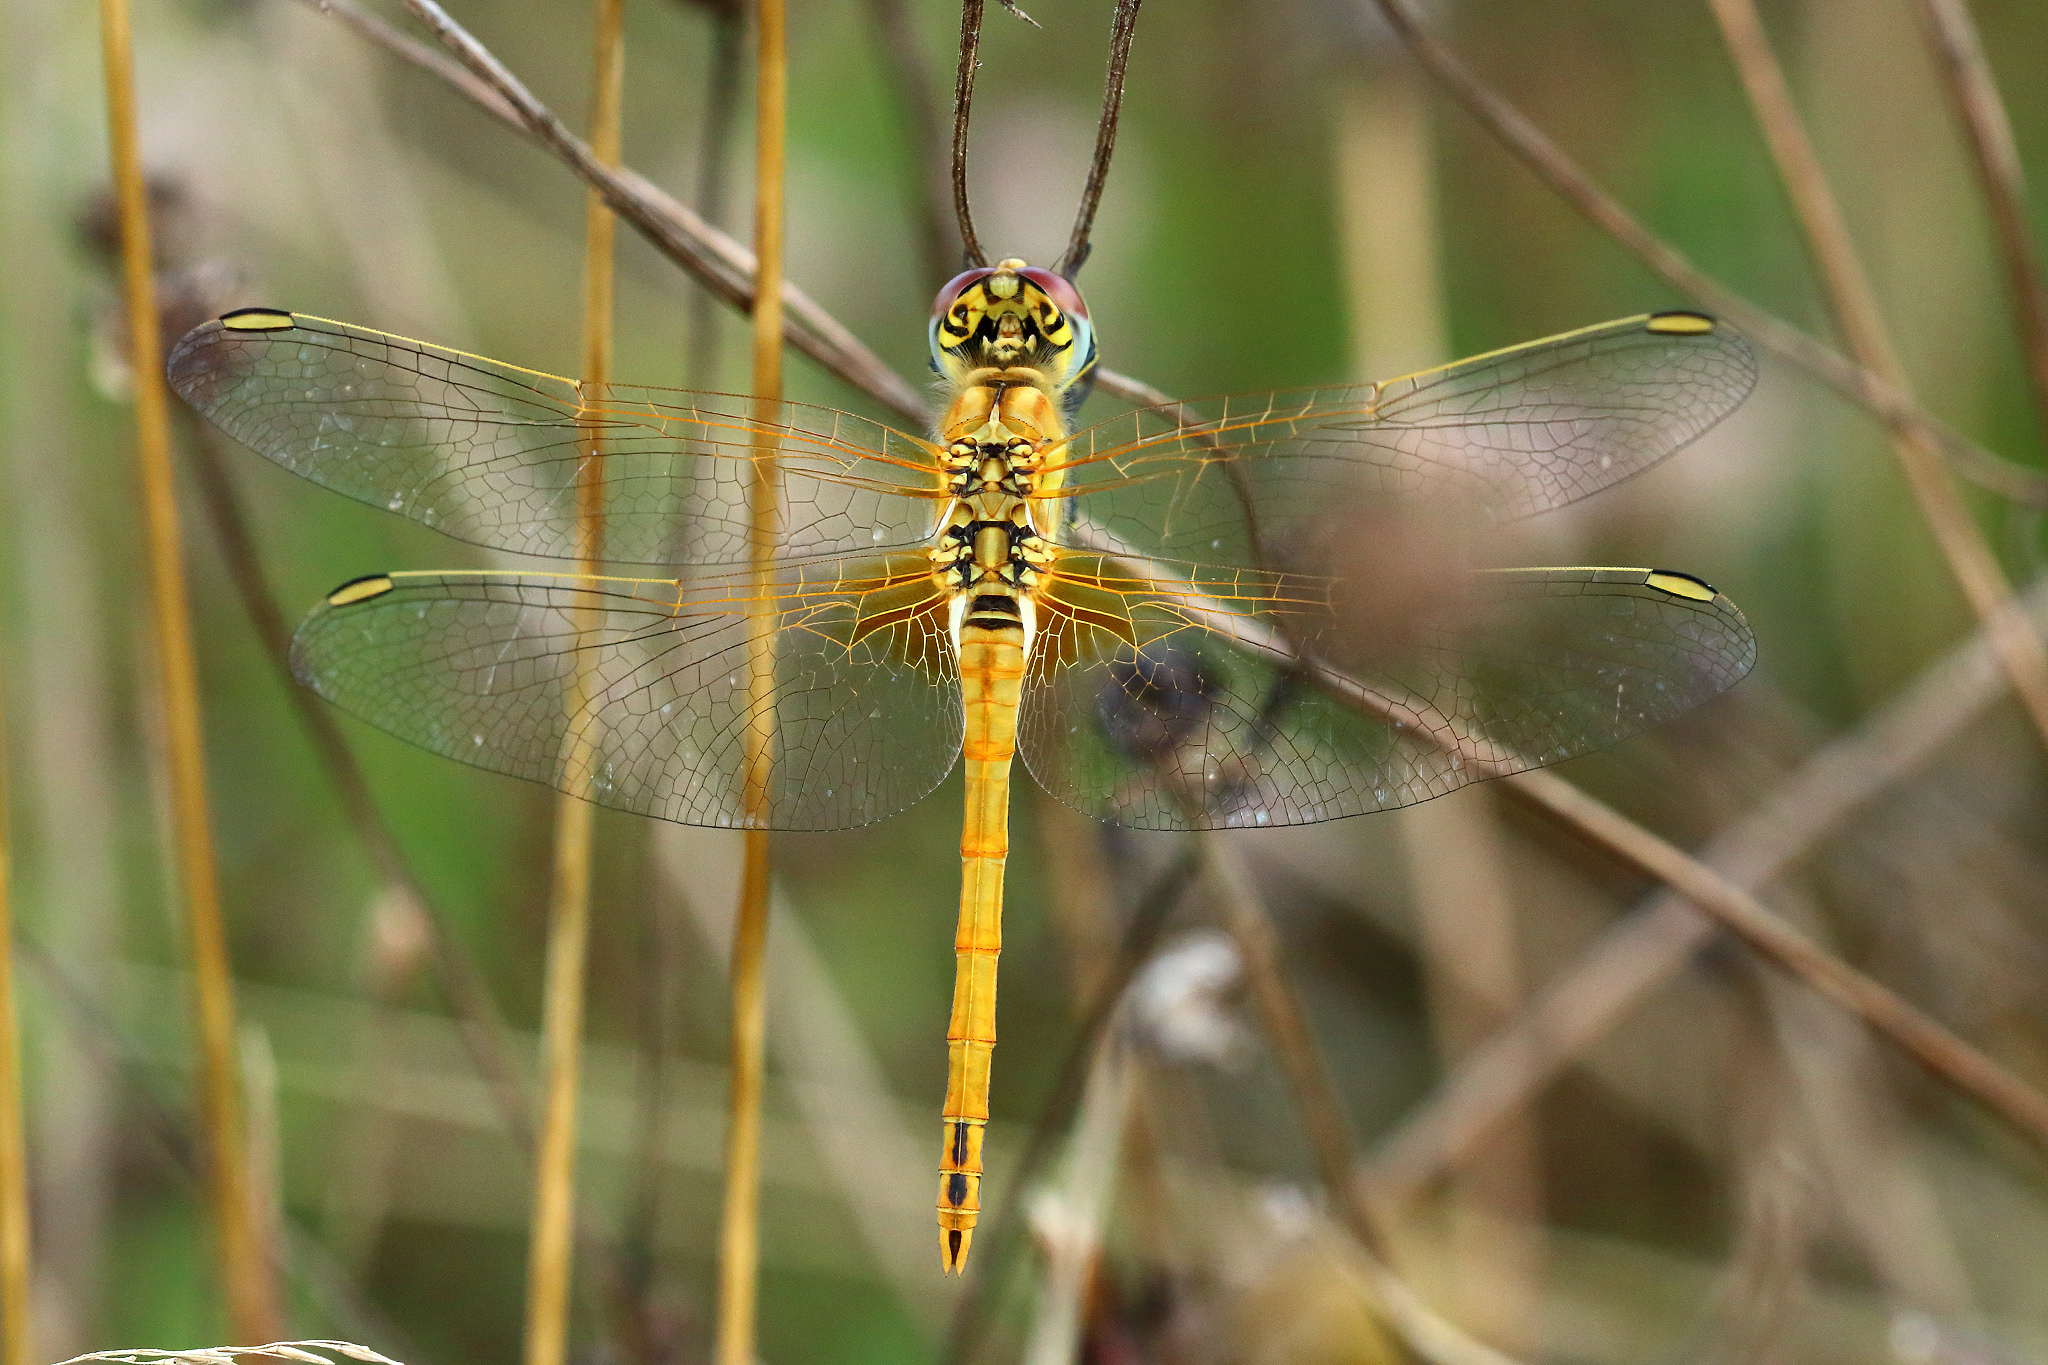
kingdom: Animalia
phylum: Arthropoda
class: Insecta
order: Odonata
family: Libellulidae
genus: Sympetrum
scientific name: Sympetrum fonscolombii
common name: Red-veined darter
